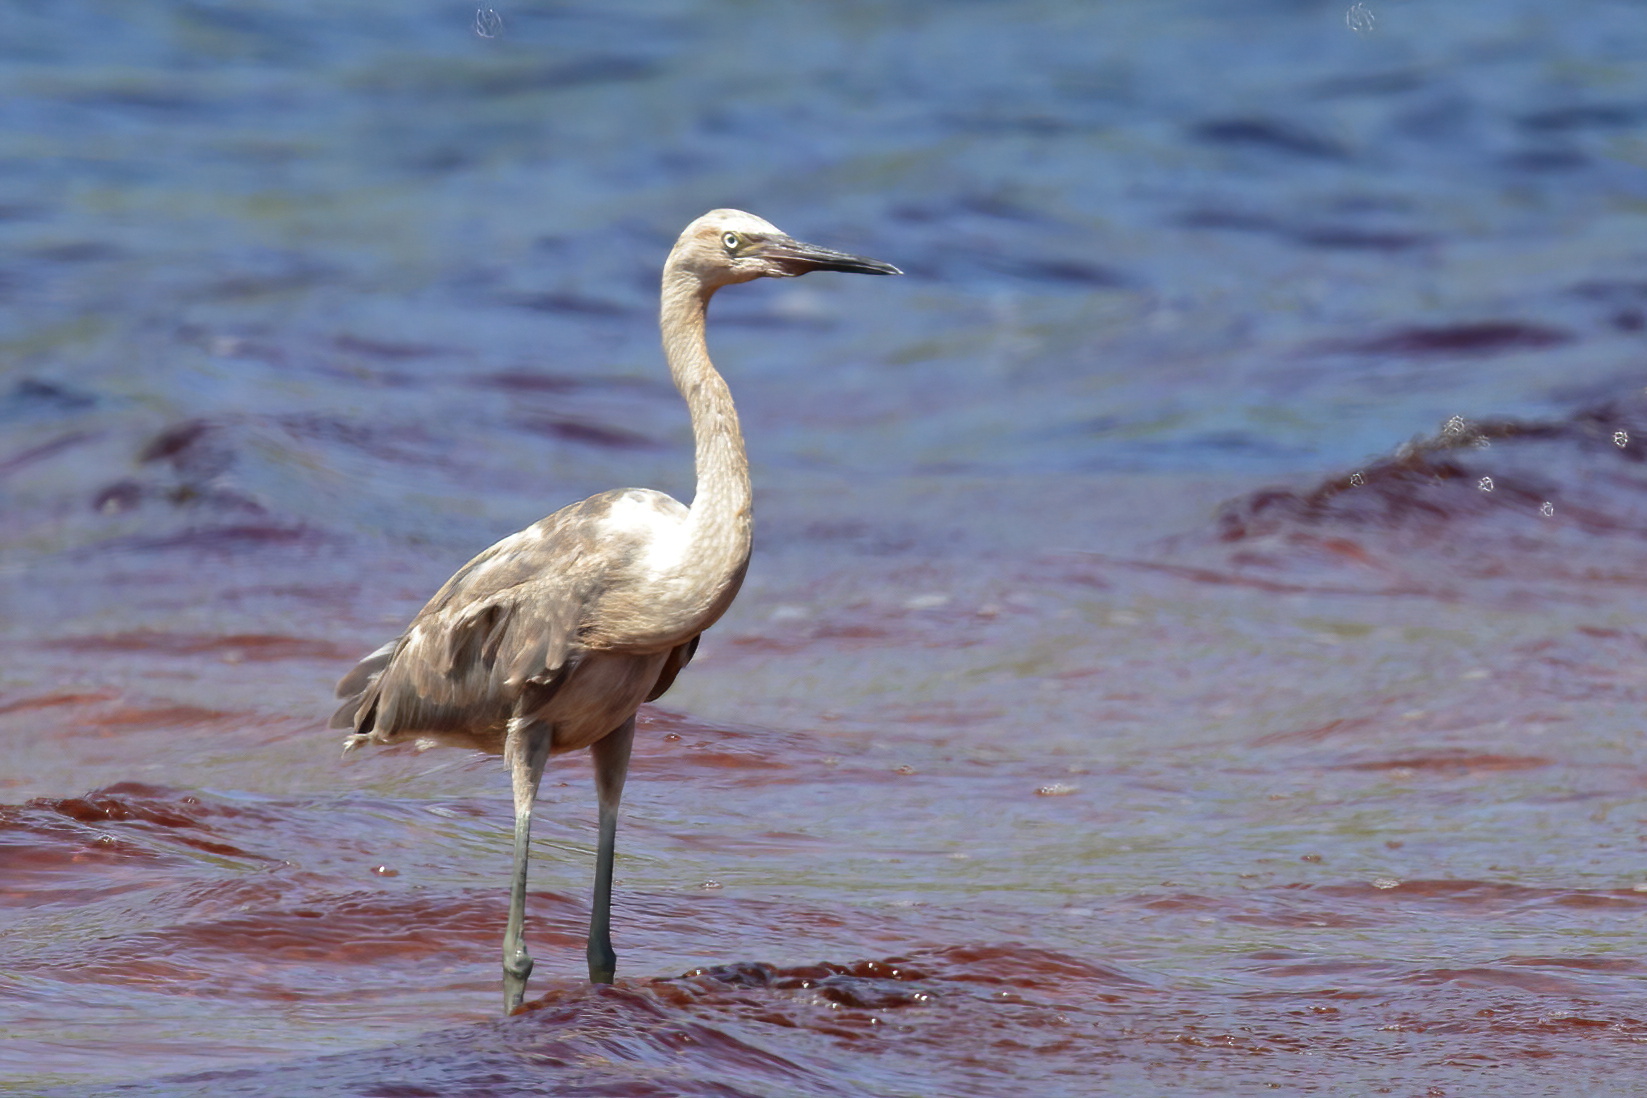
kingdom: Animalia
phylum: Chordata
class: Aves
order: Pelecaniformes
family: Ardeidae
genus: Egretta
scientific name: Egretta rufescens
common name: Reddish egret
